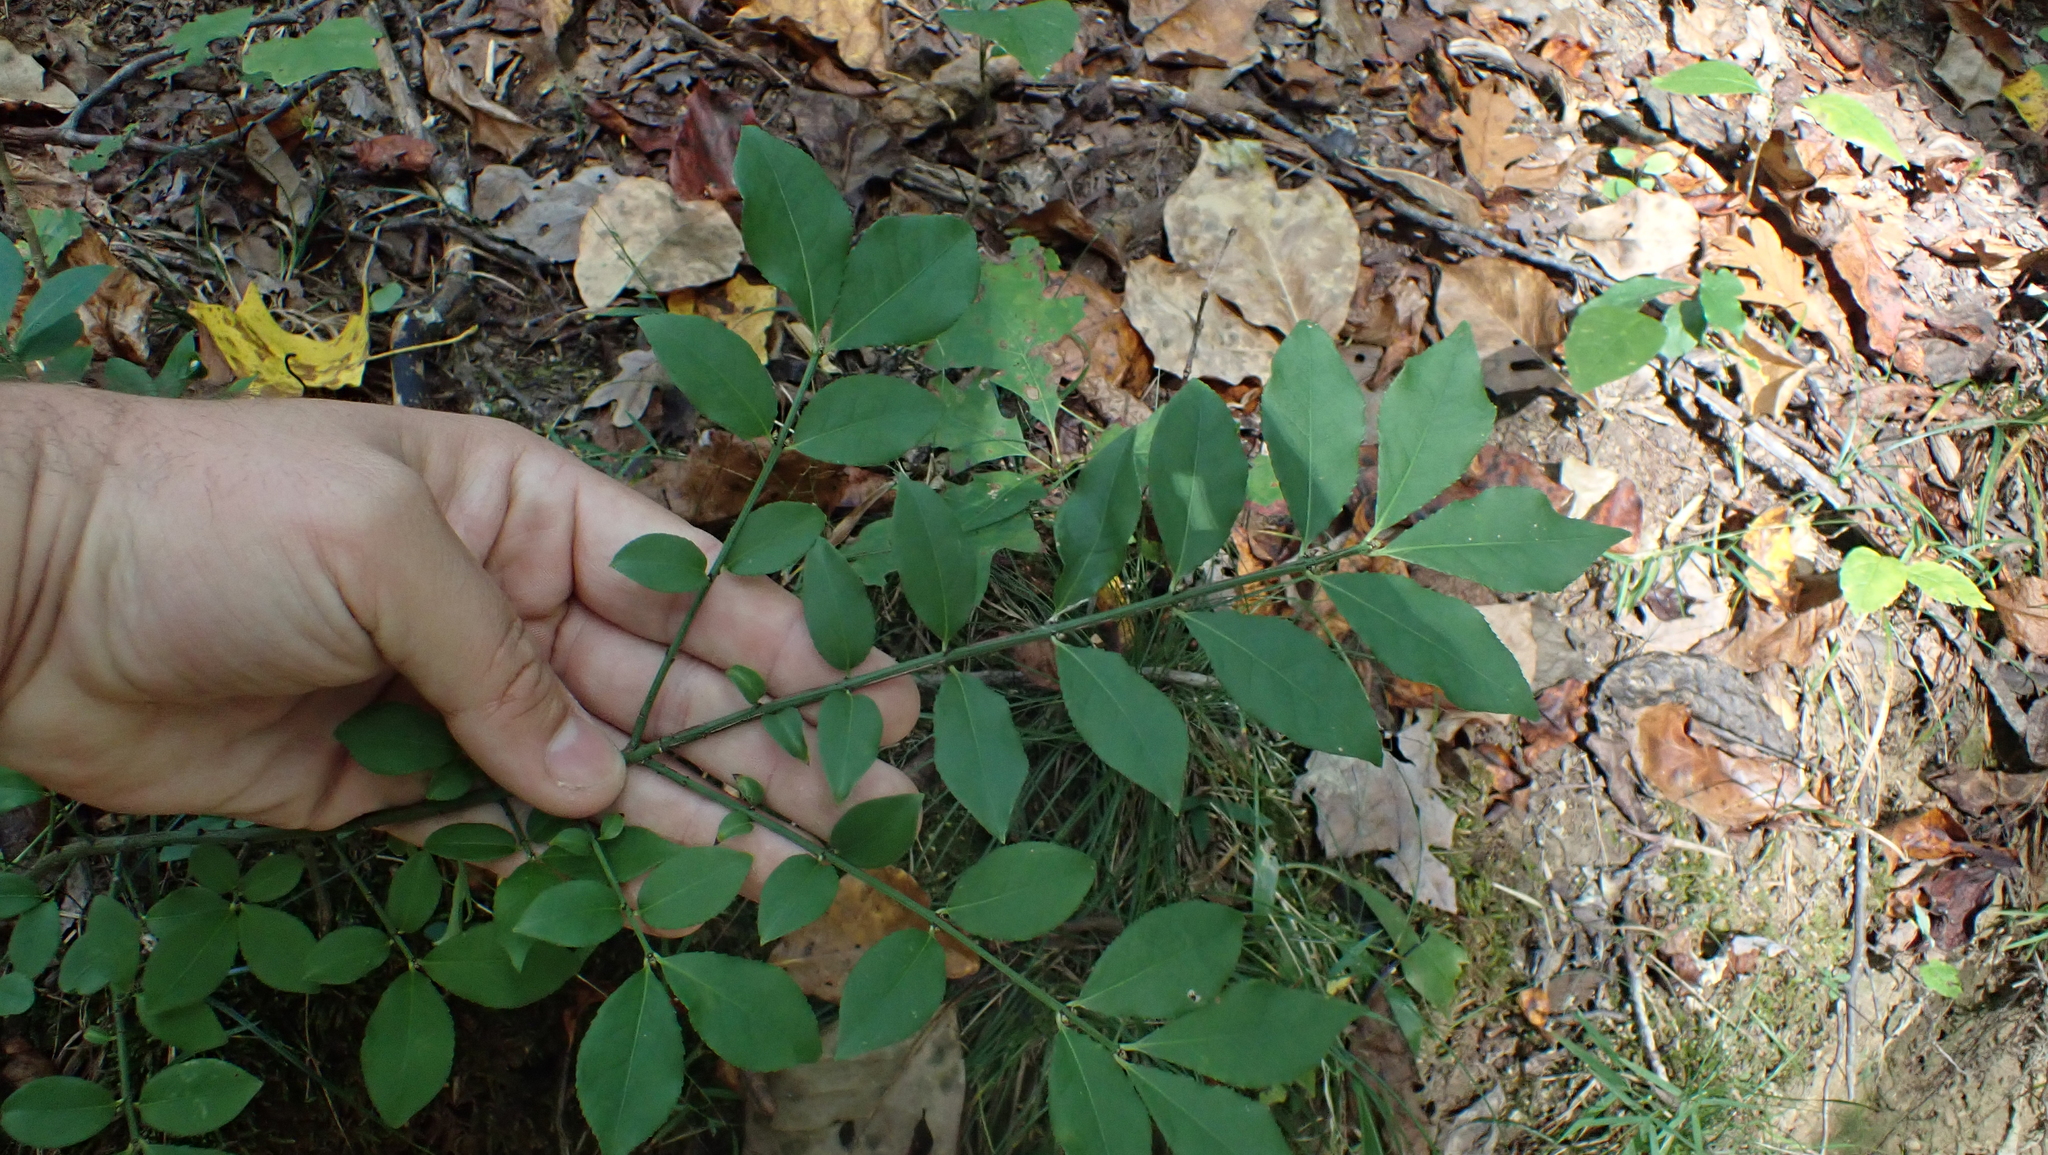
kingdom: Plantae
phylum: Tracheophyta
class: Magnoliopsida
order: Celastrales
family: Celastraceae
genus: Euonymus
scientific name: Euonymus alatus
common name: Winged euonymus
